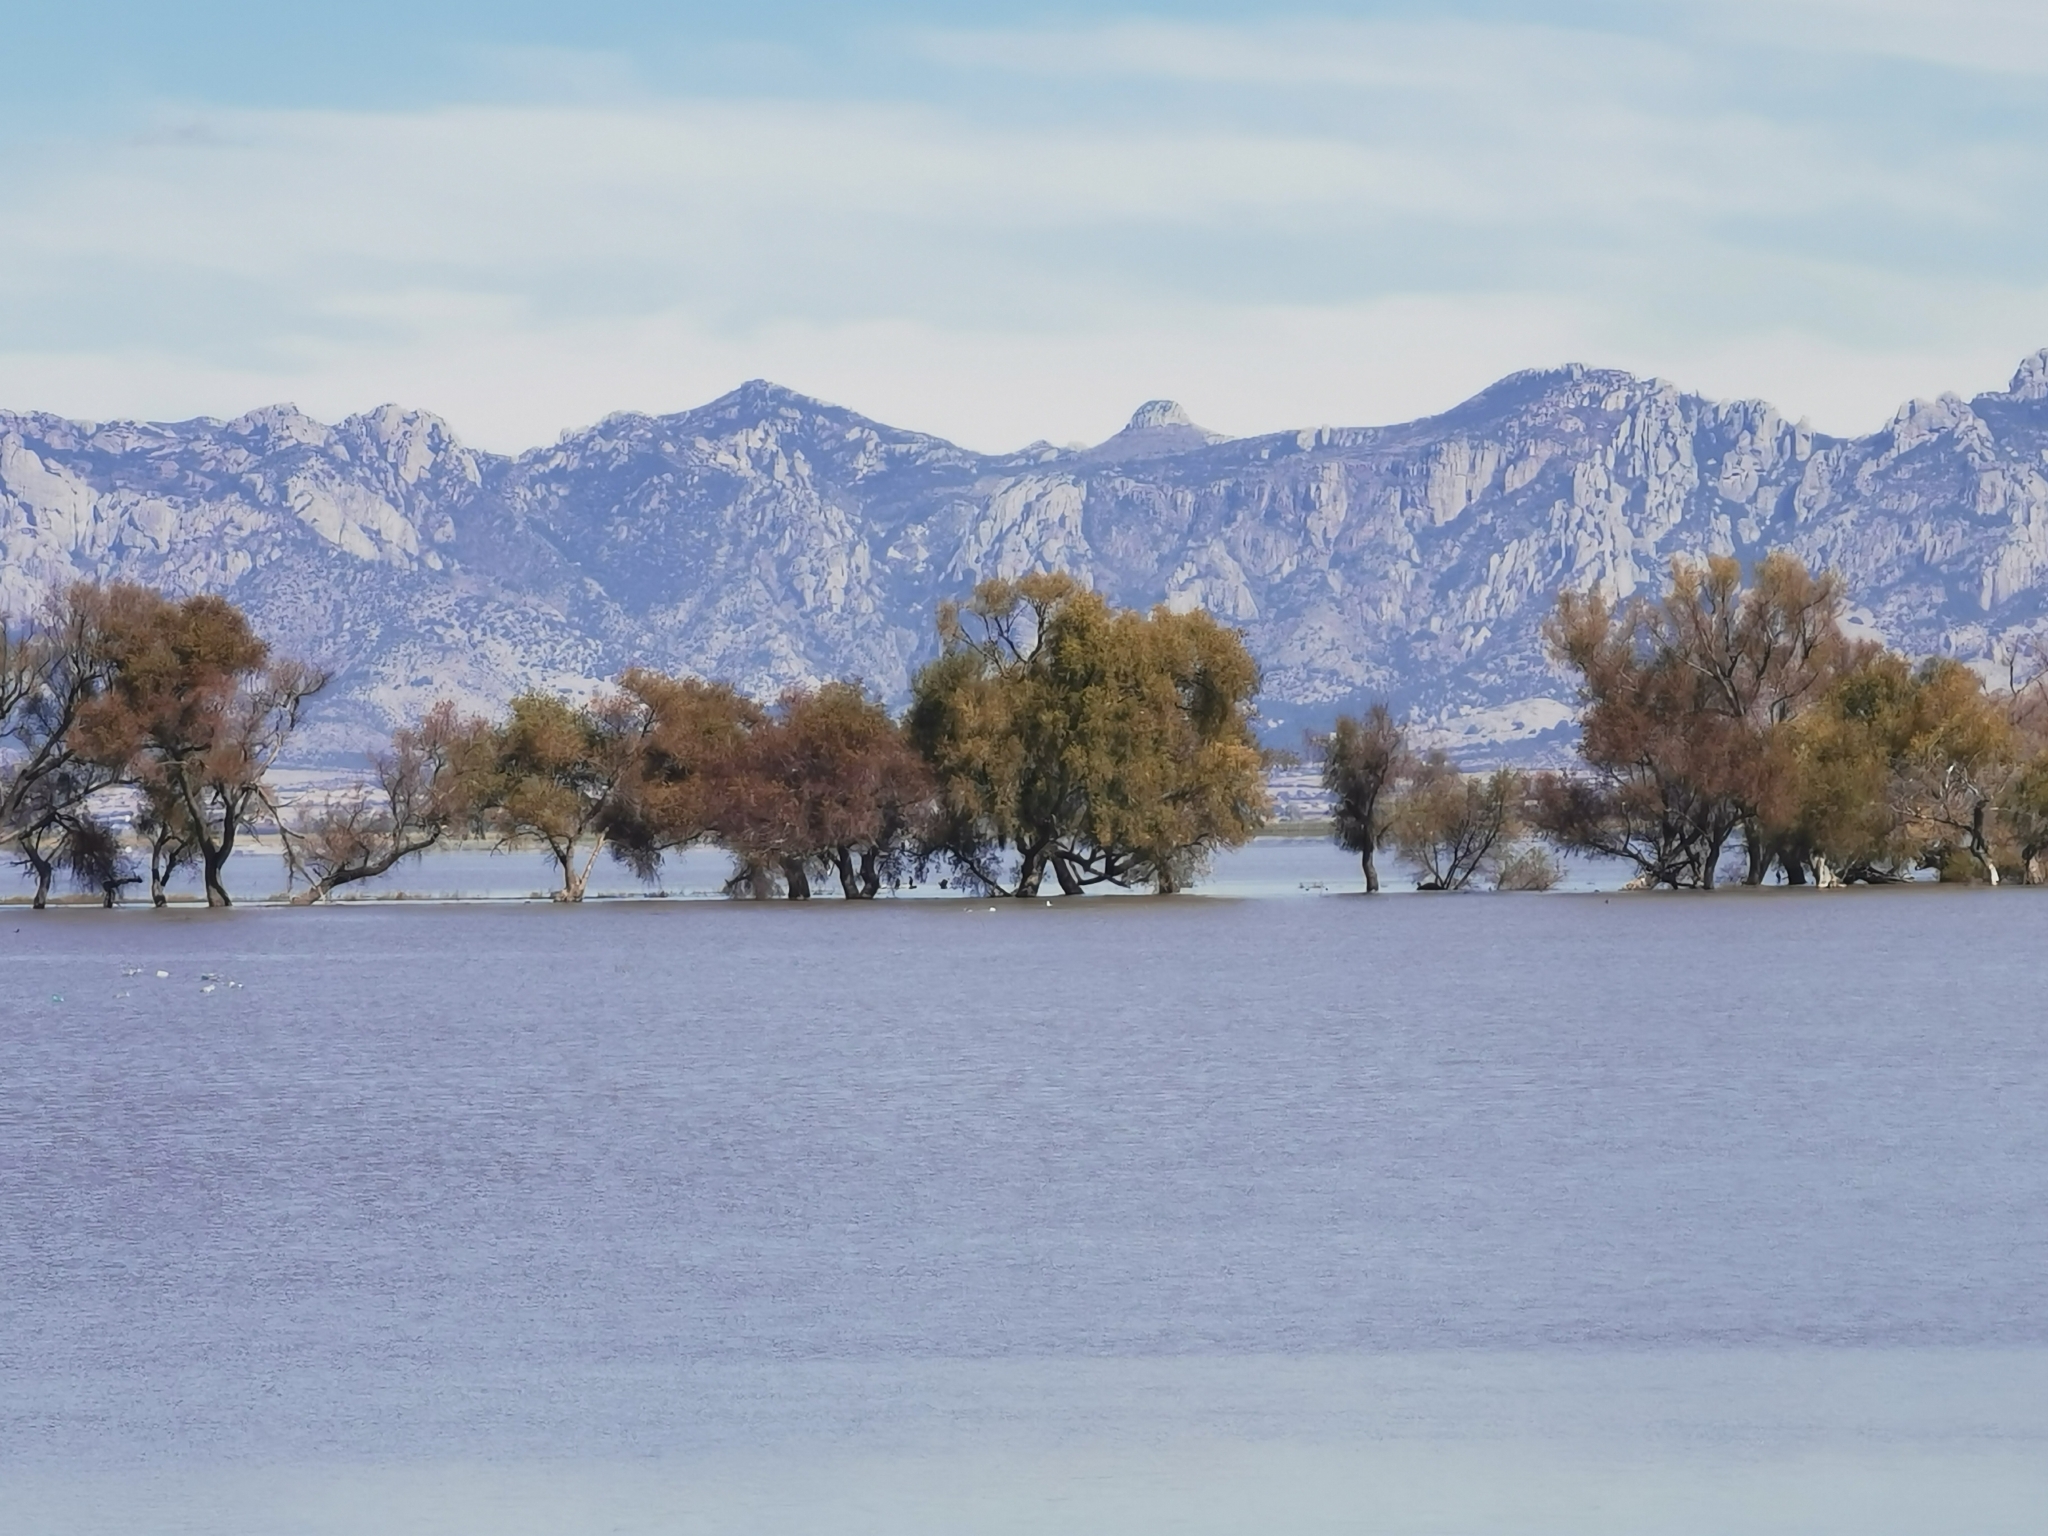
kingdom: Plantae
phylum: Tracheophyta
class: Magnoliopsida
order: Malpighiales
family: Salicaceae
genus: Salix
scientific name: Salix bonplandiana
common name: Bonpland’s willow
